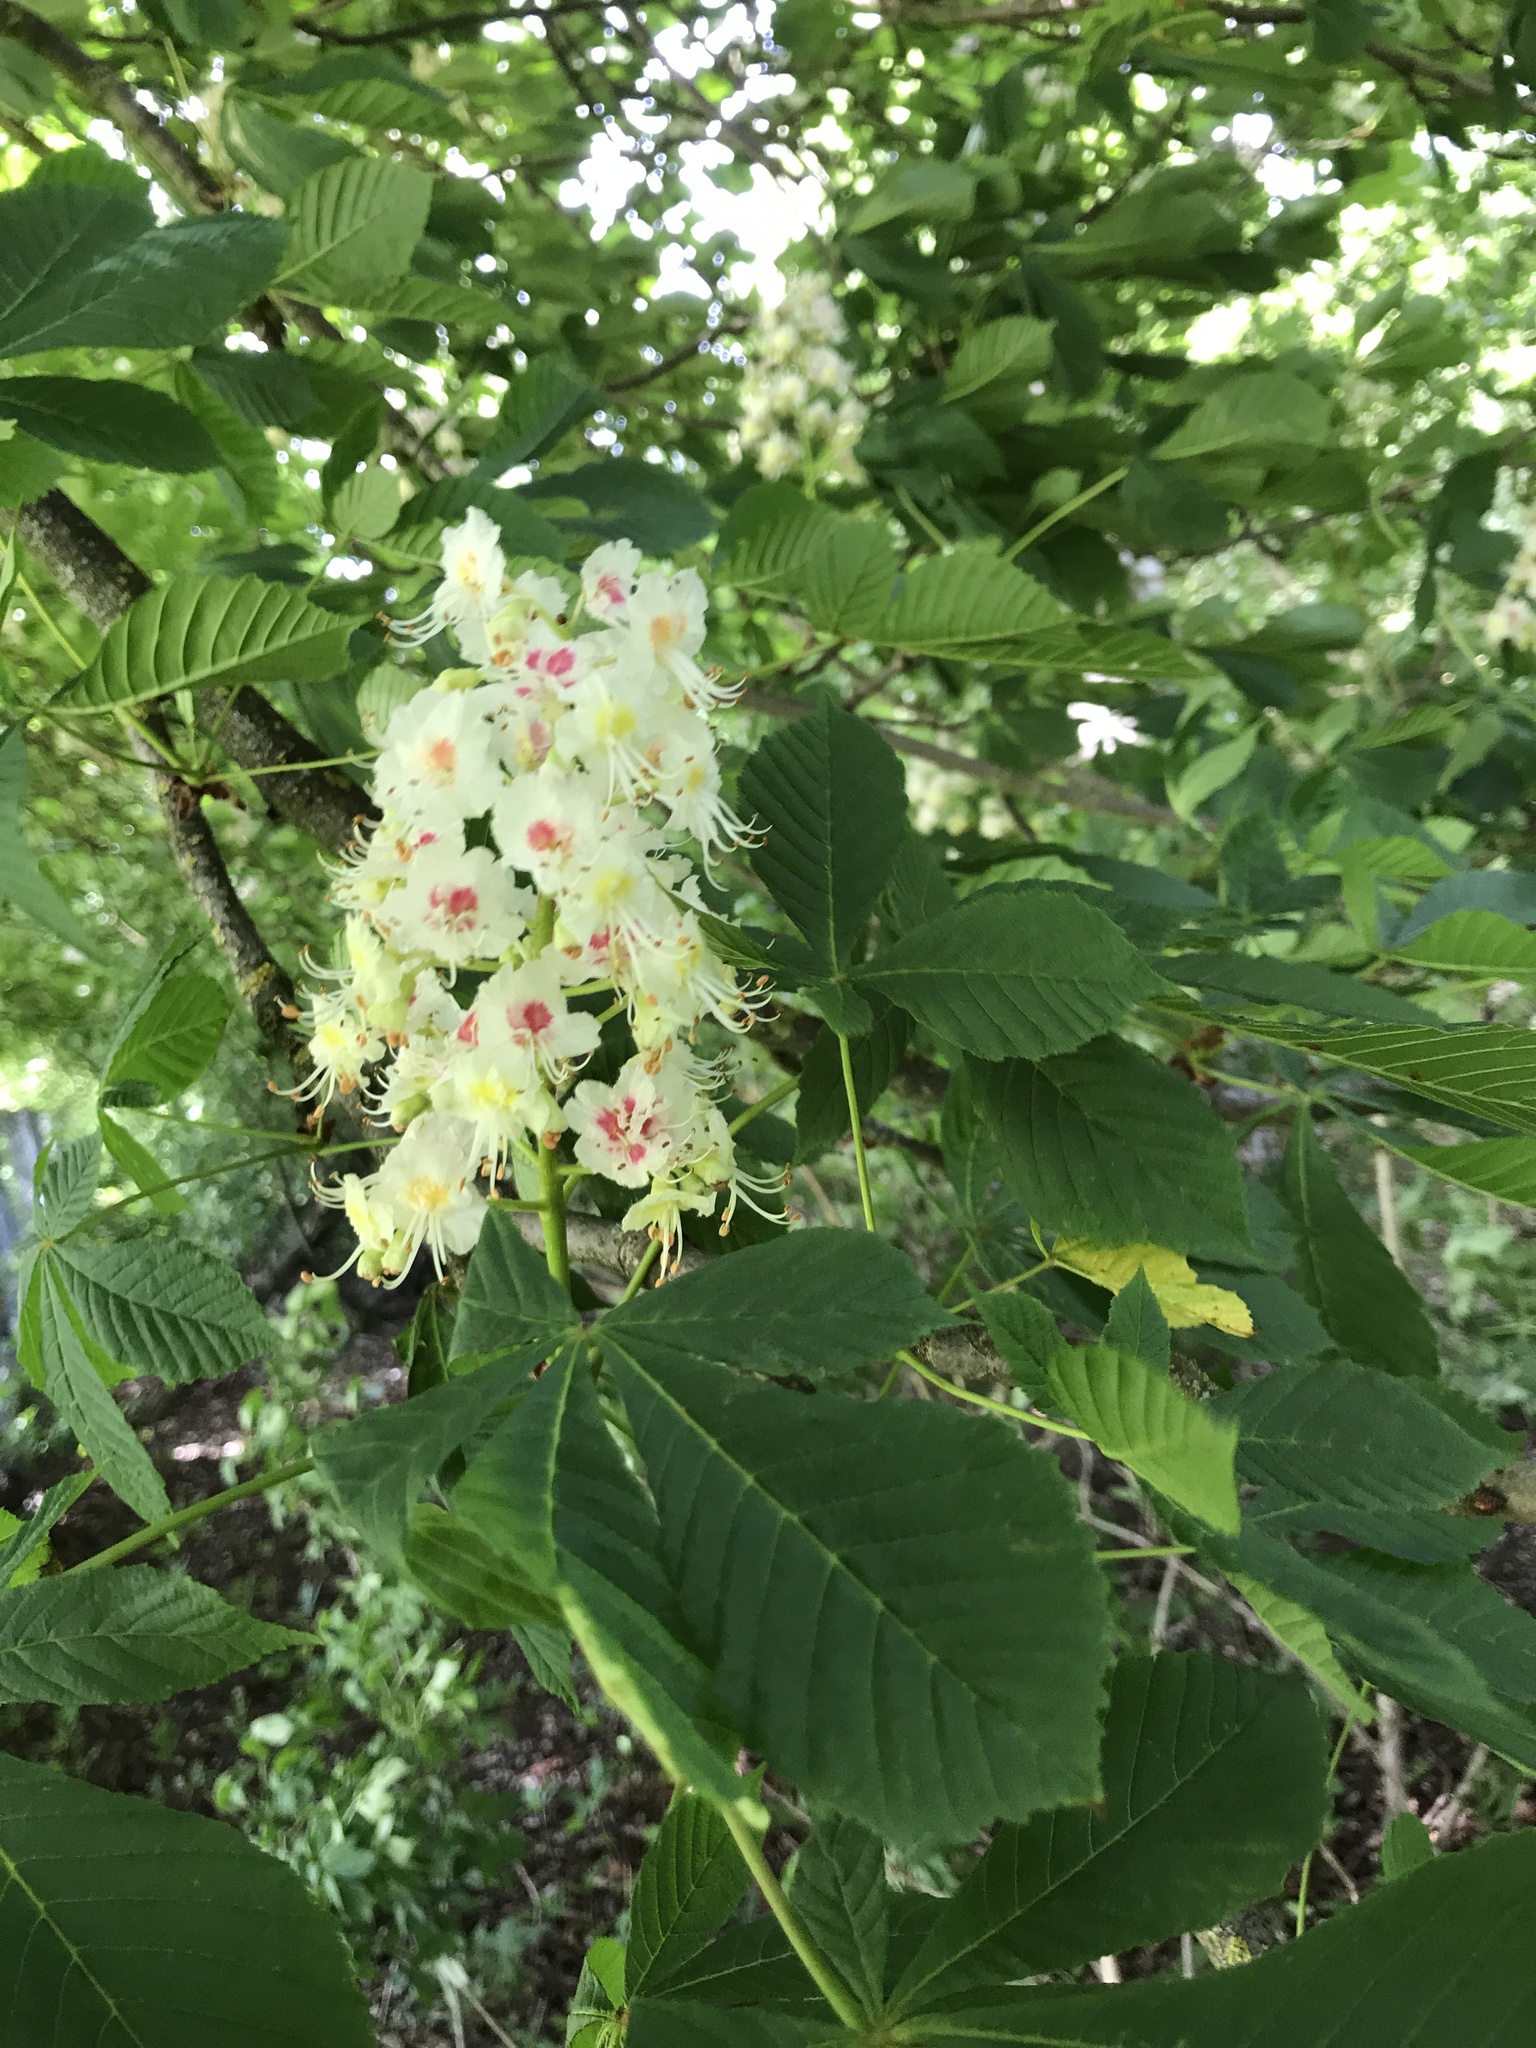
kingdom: Plantae
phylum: Tracheophyta
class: Magnoliopsida
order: Sapindales
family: Sapindaceae
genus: Aesculus
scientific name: Aesculus hippocastanum
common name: Horse-chestnut
